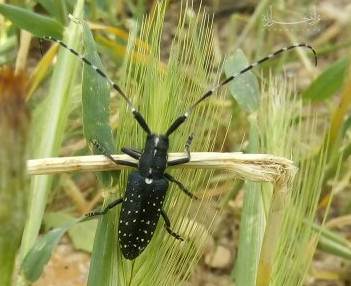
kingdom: Animalia
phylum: Arthropoda
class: Insecta
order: Coleoptera
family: Cerambycidae
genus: Agapanthia
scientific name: Agapanthia irrorata
